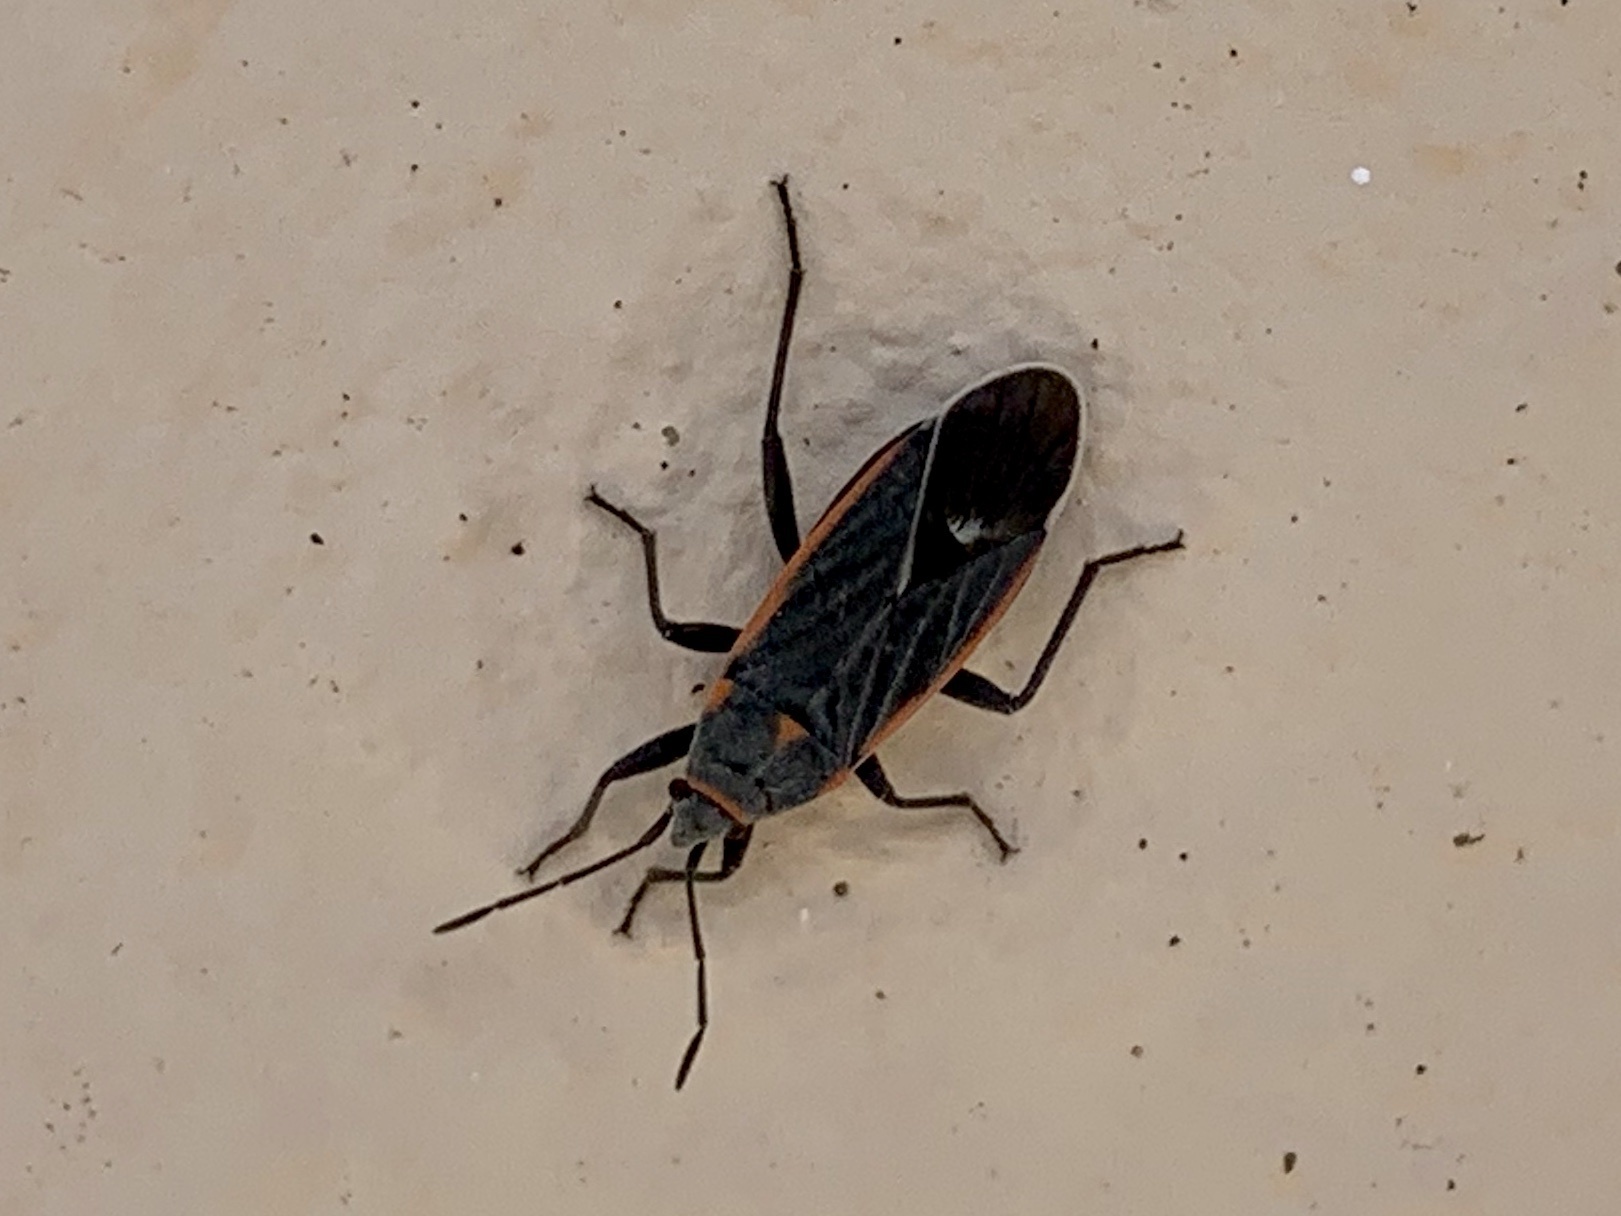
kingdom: Animalia
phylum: Arthropoda
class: Insecta
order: Hemiptera
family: Lygaeidae
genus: Melacoryphus
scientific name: Melacoryphus lateralis
